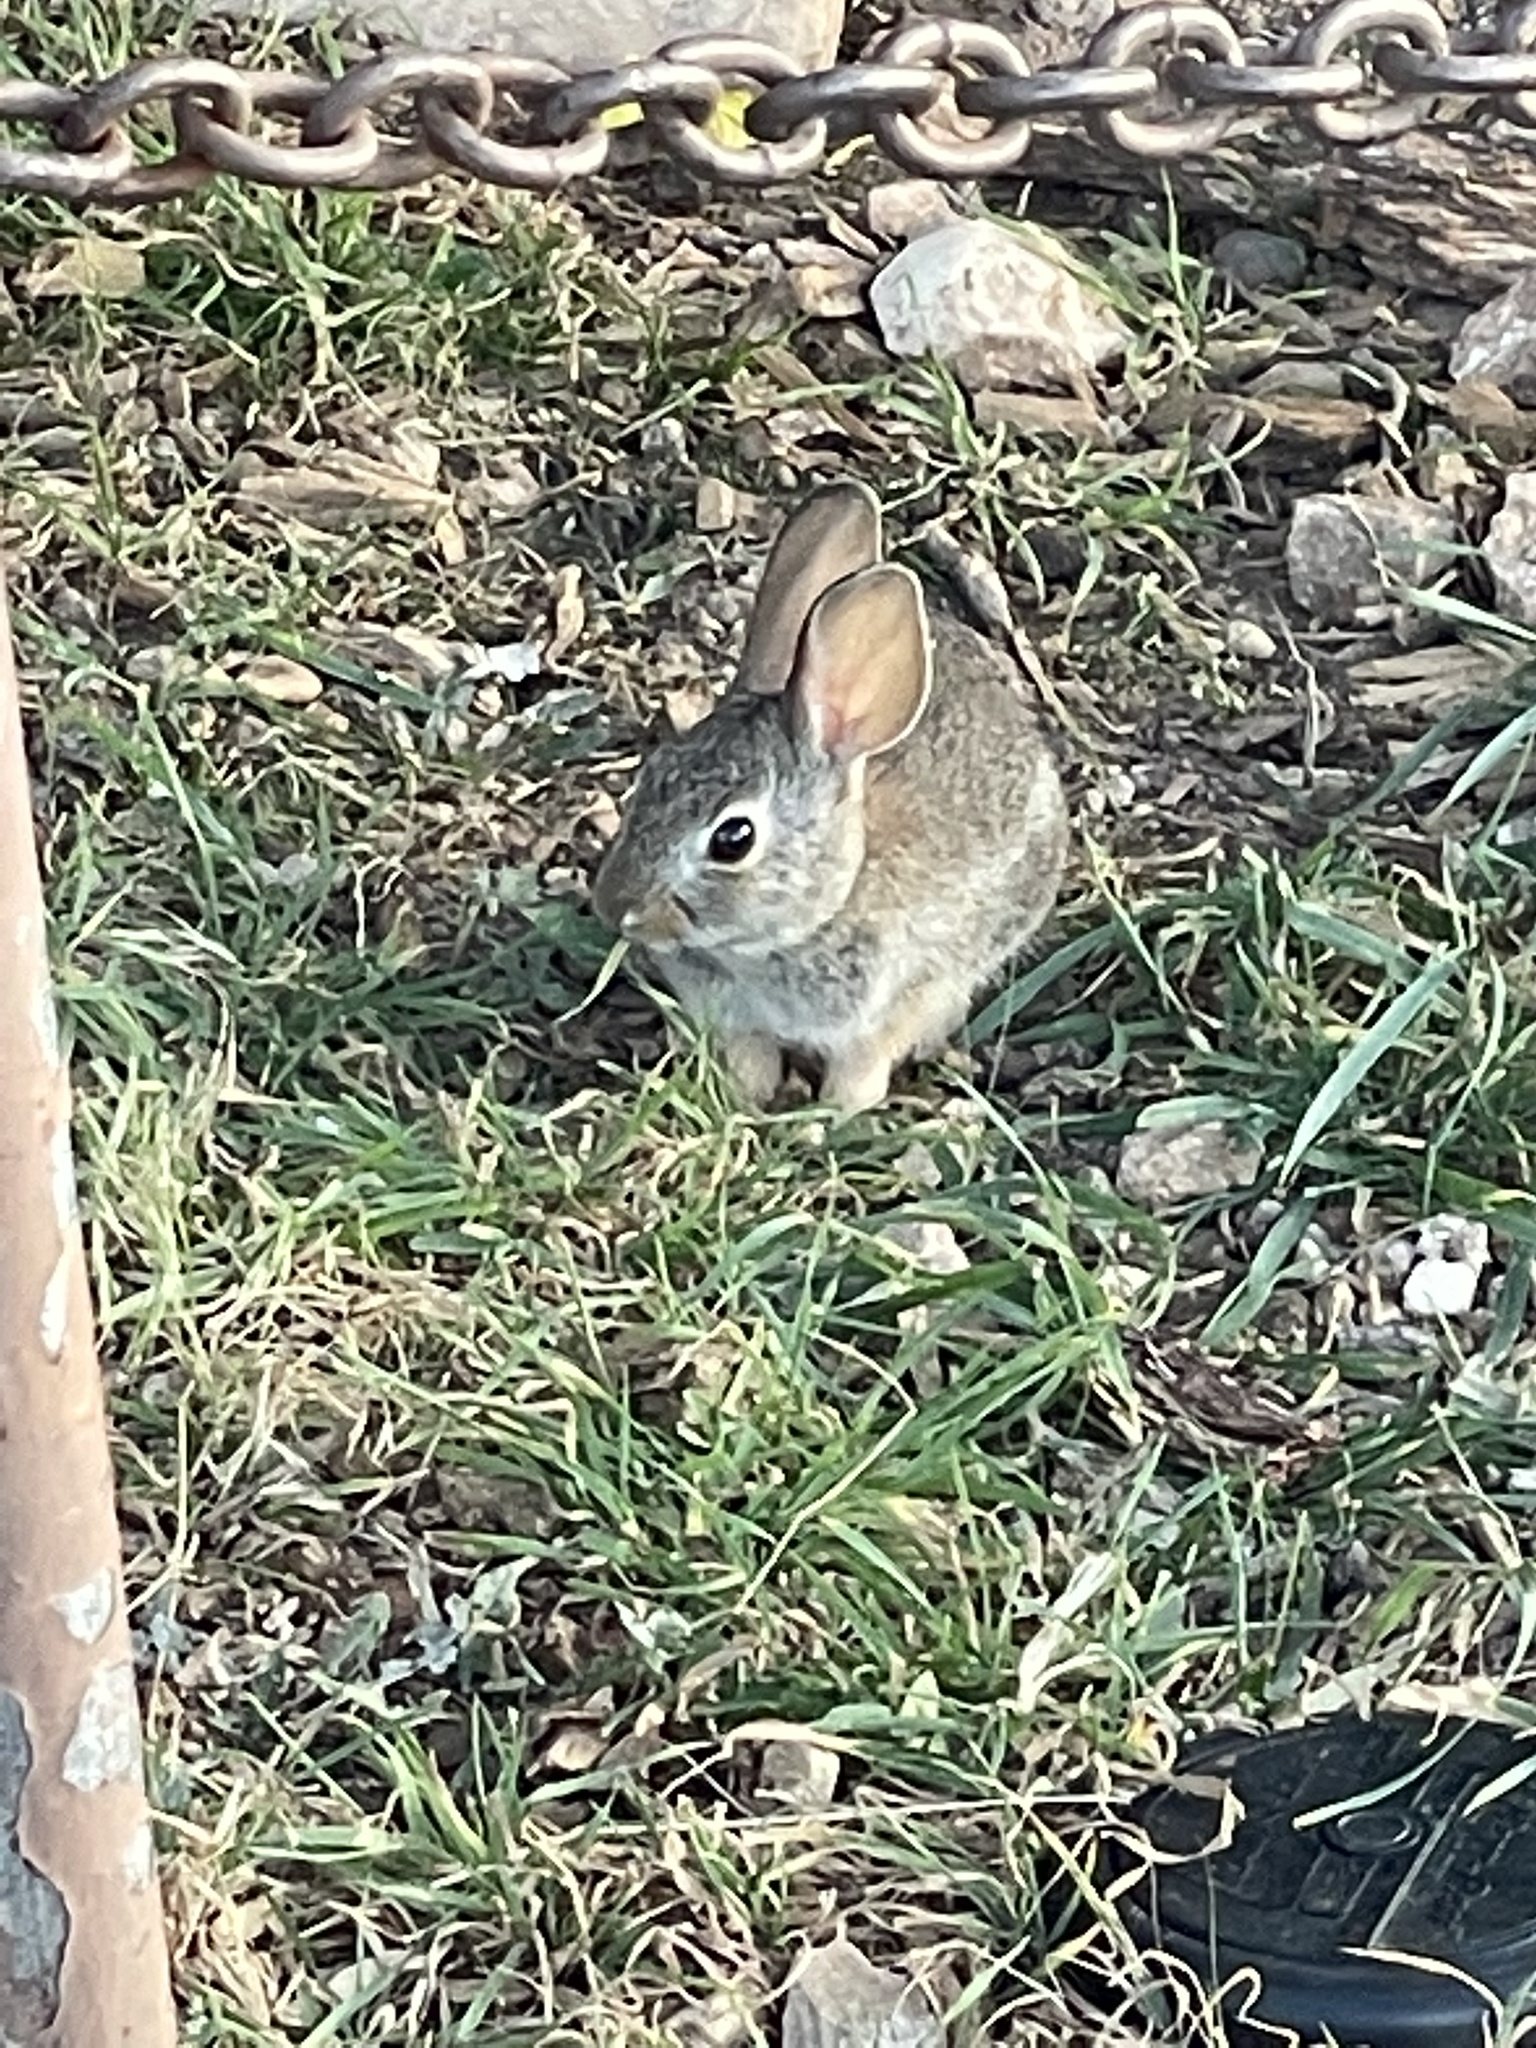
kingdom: Animalia
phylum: Chordata
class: Mammalia
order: Lagomorpha
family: Leporidae
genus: Sylvilagus
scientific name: Sylvilagus audubonii
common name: Desert cottontail
